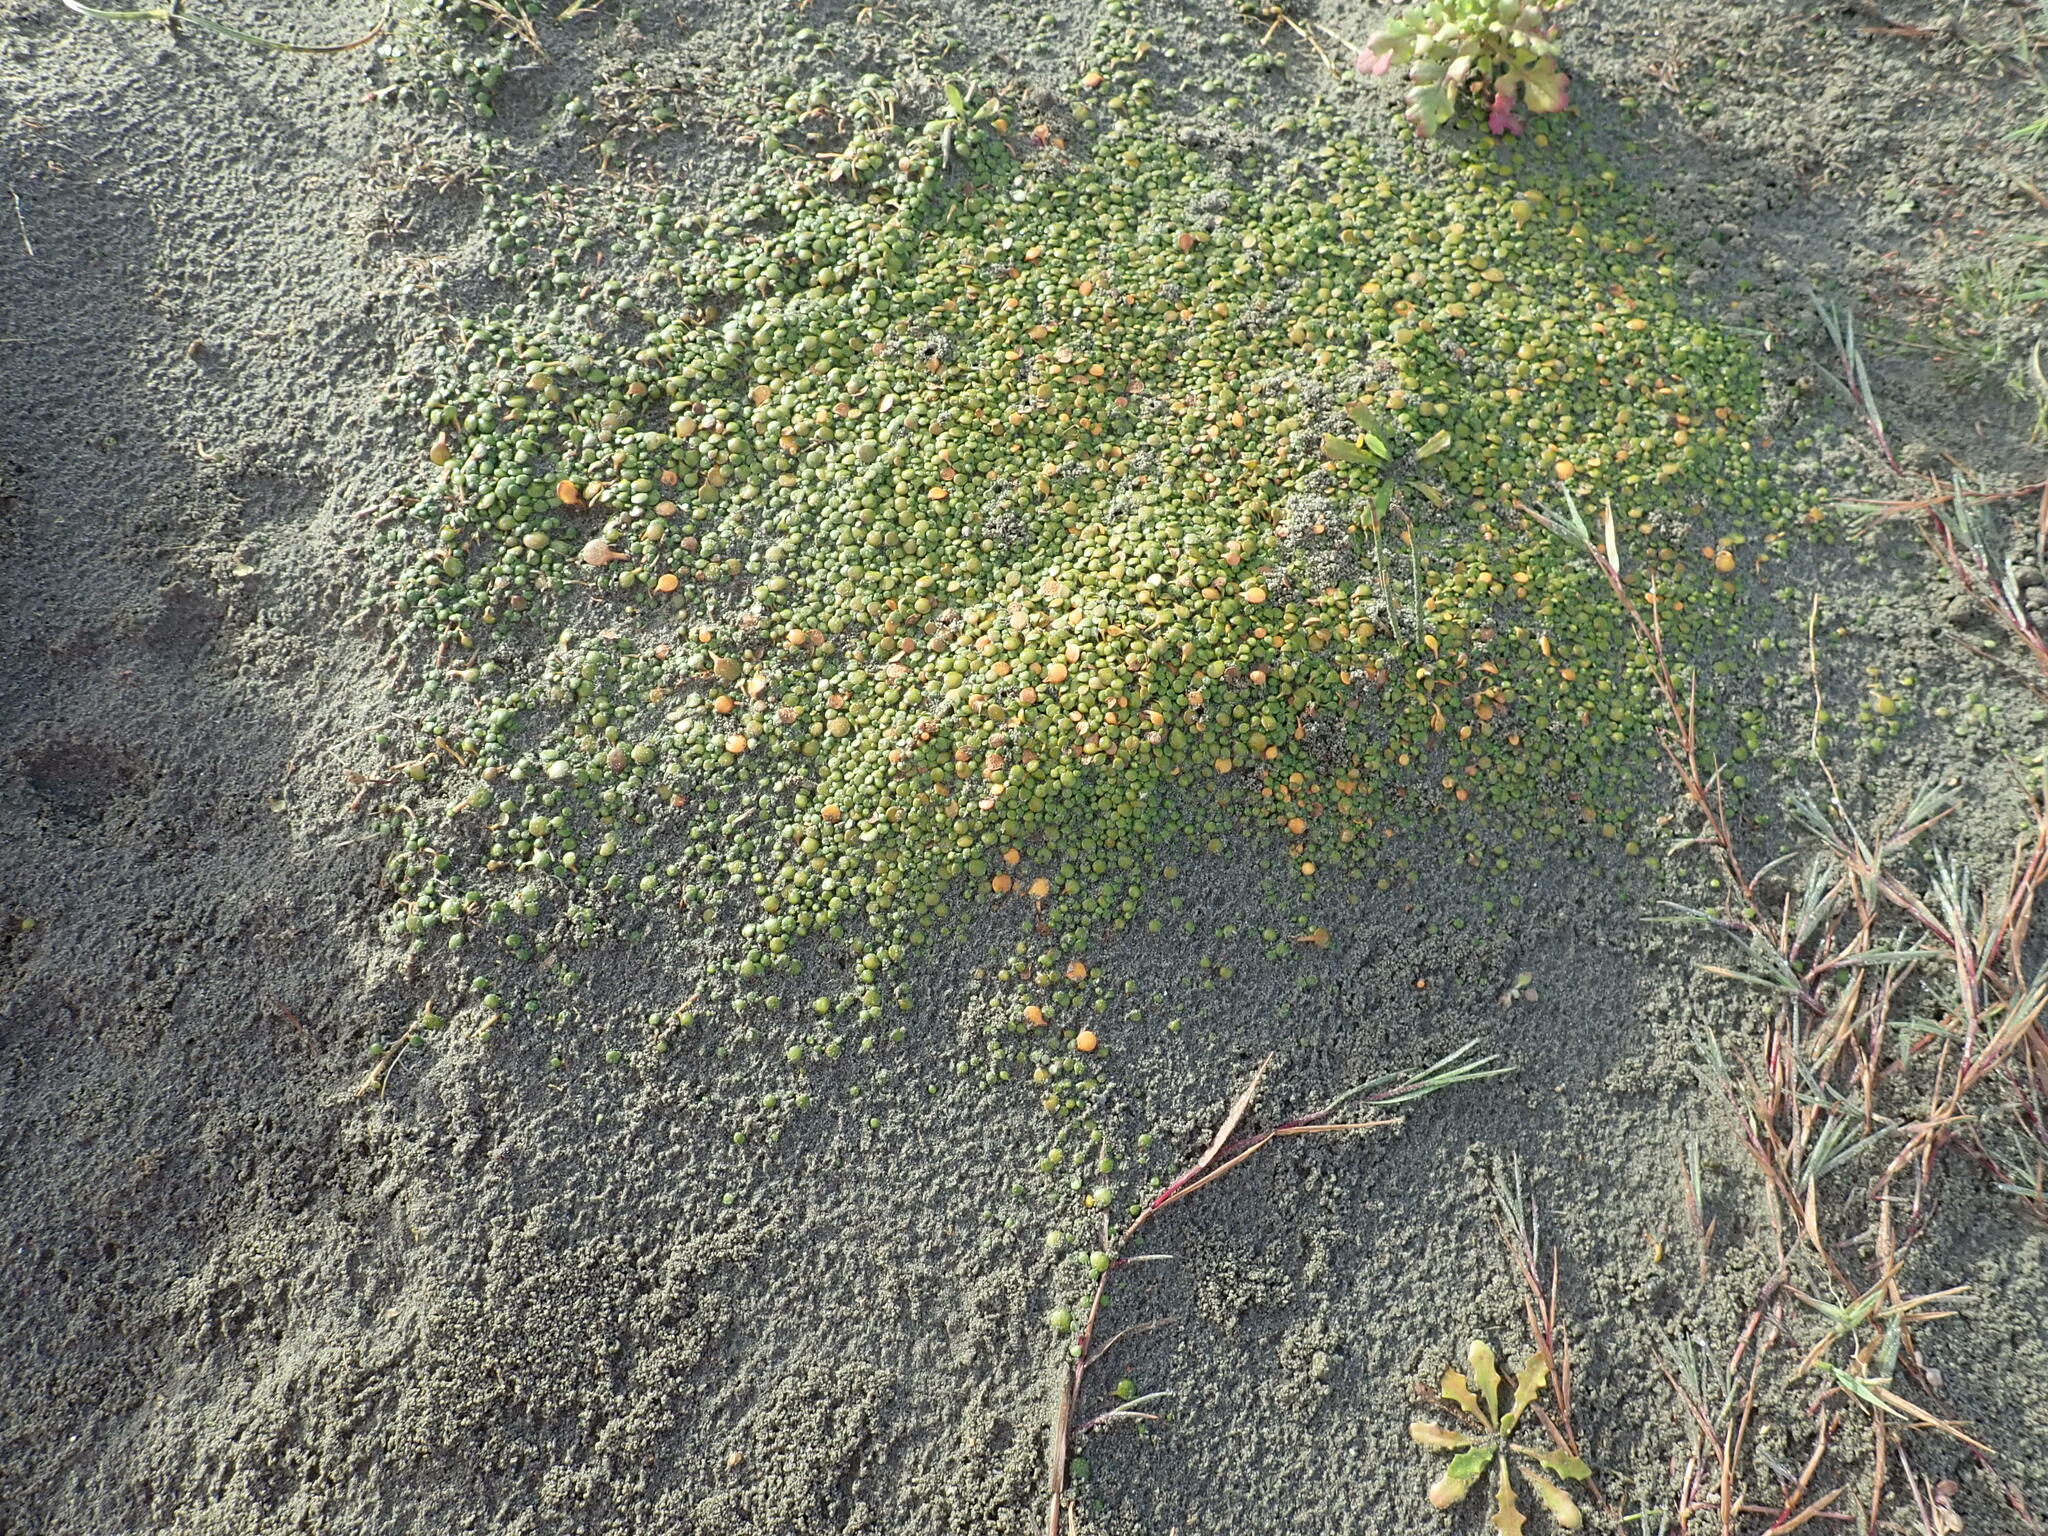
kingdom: Plantae
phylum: Tracheophyta
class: Magnoliopsida
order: Asterales
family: Goodeniaceae
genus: Goodenia
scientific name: Goodenia heenanii
